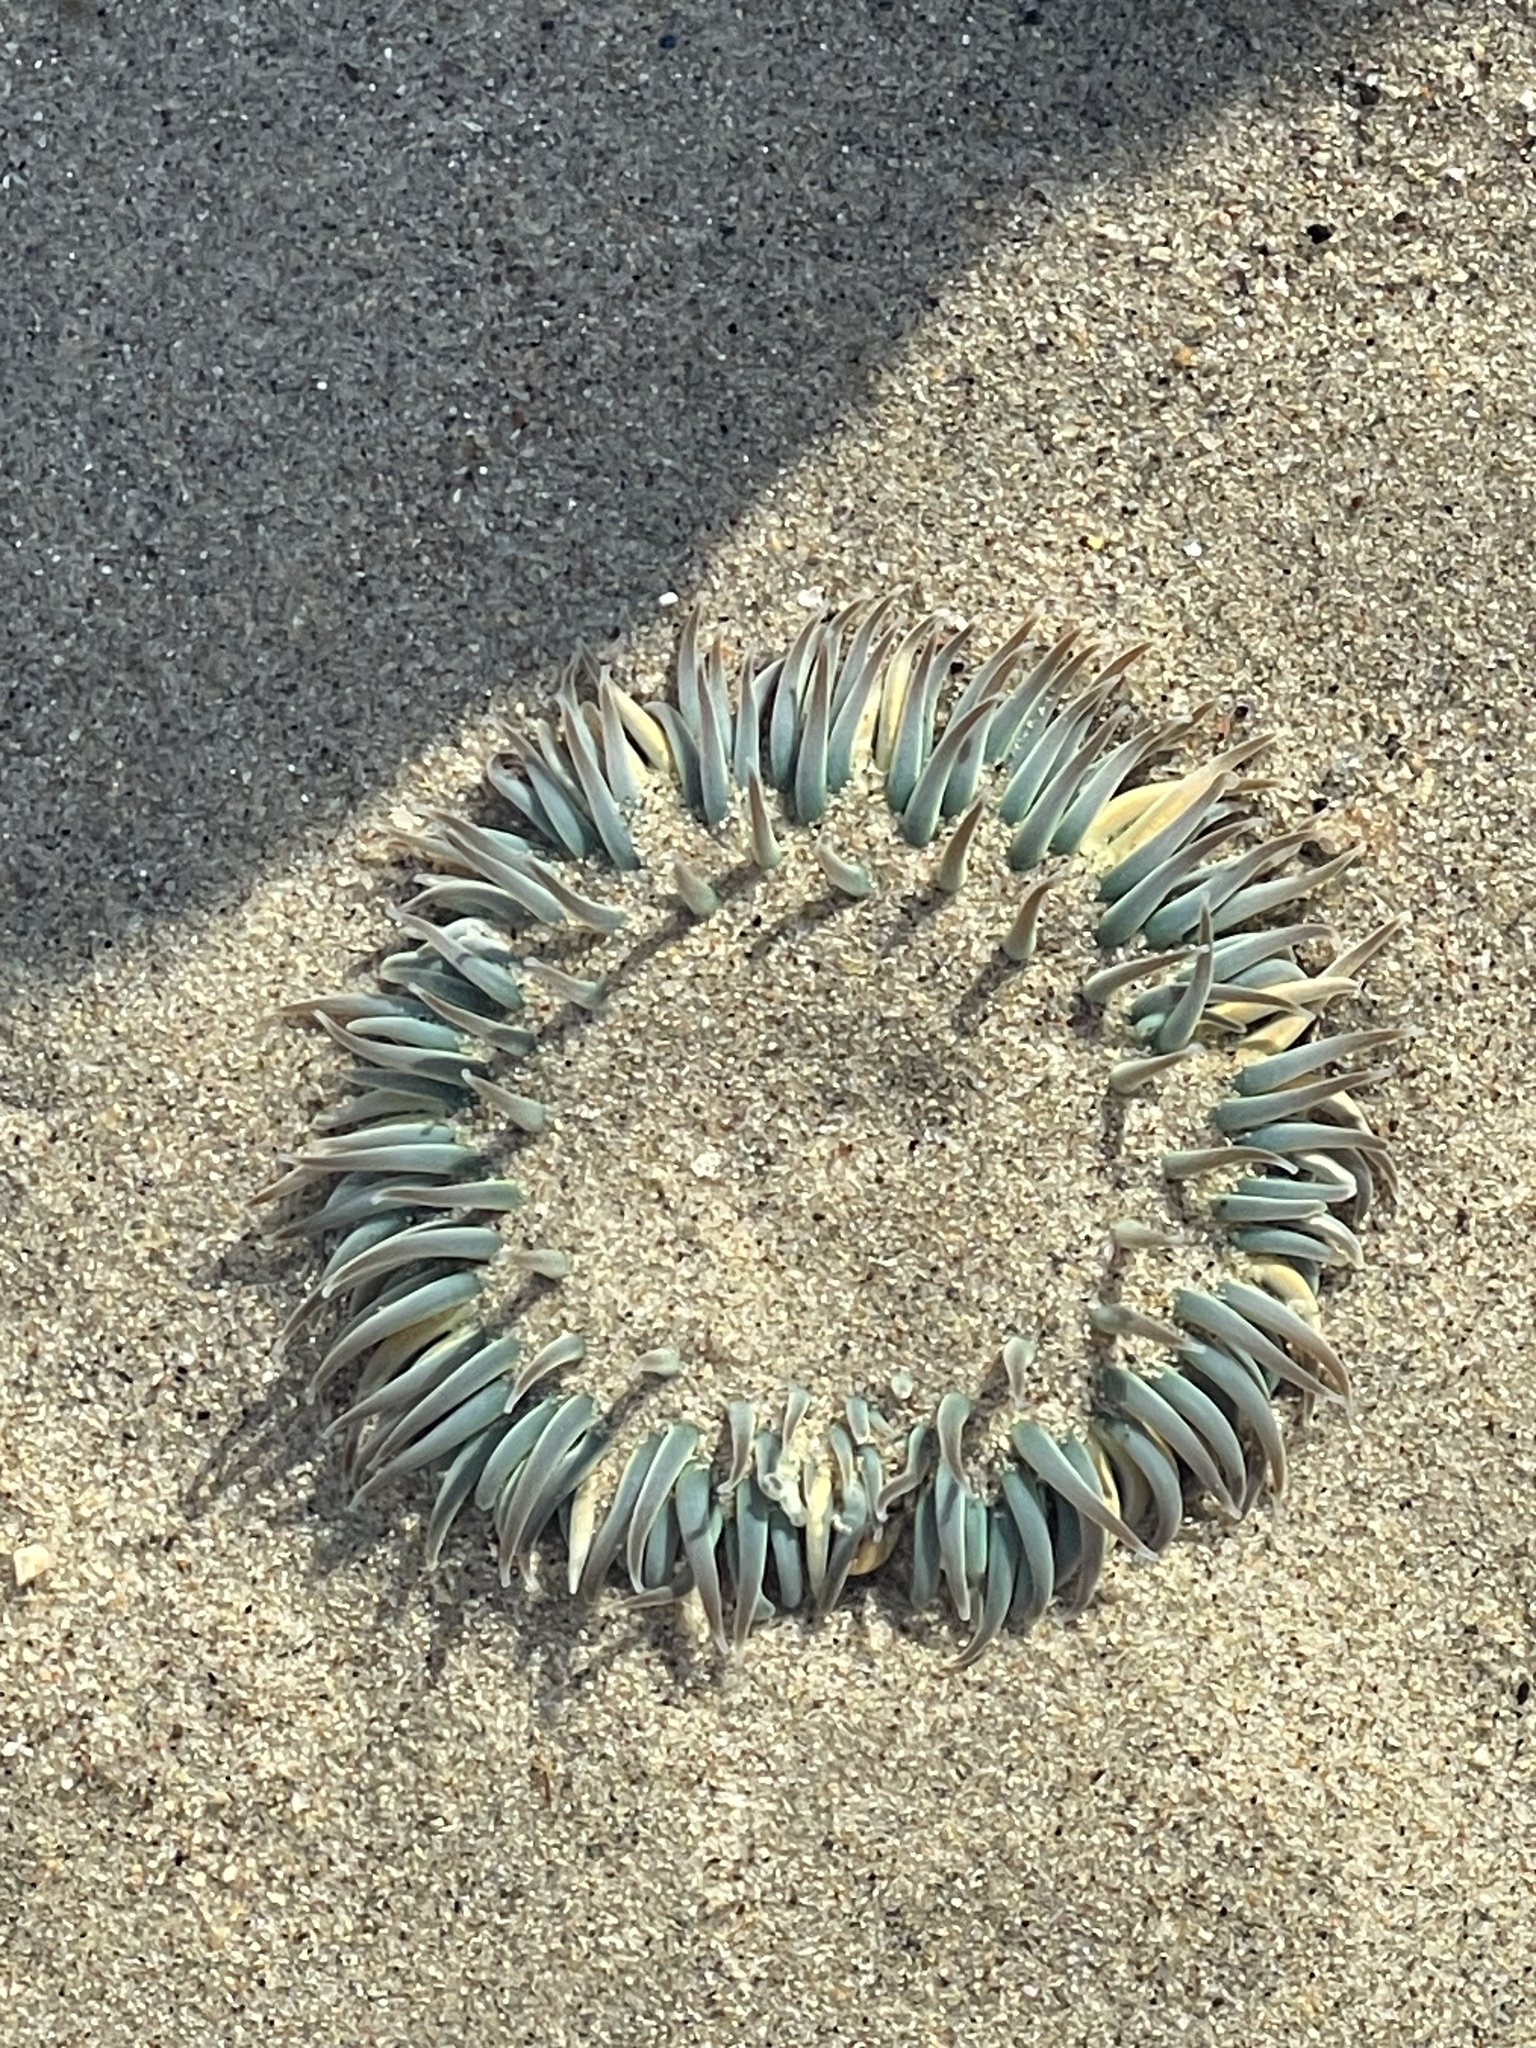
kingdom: Animalia
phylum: Cnidaria
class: Anthozoa
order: Actiniaria
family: Actiniidae
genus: Anthopleura
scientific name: Anthopleura sola
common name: Sun anemone
